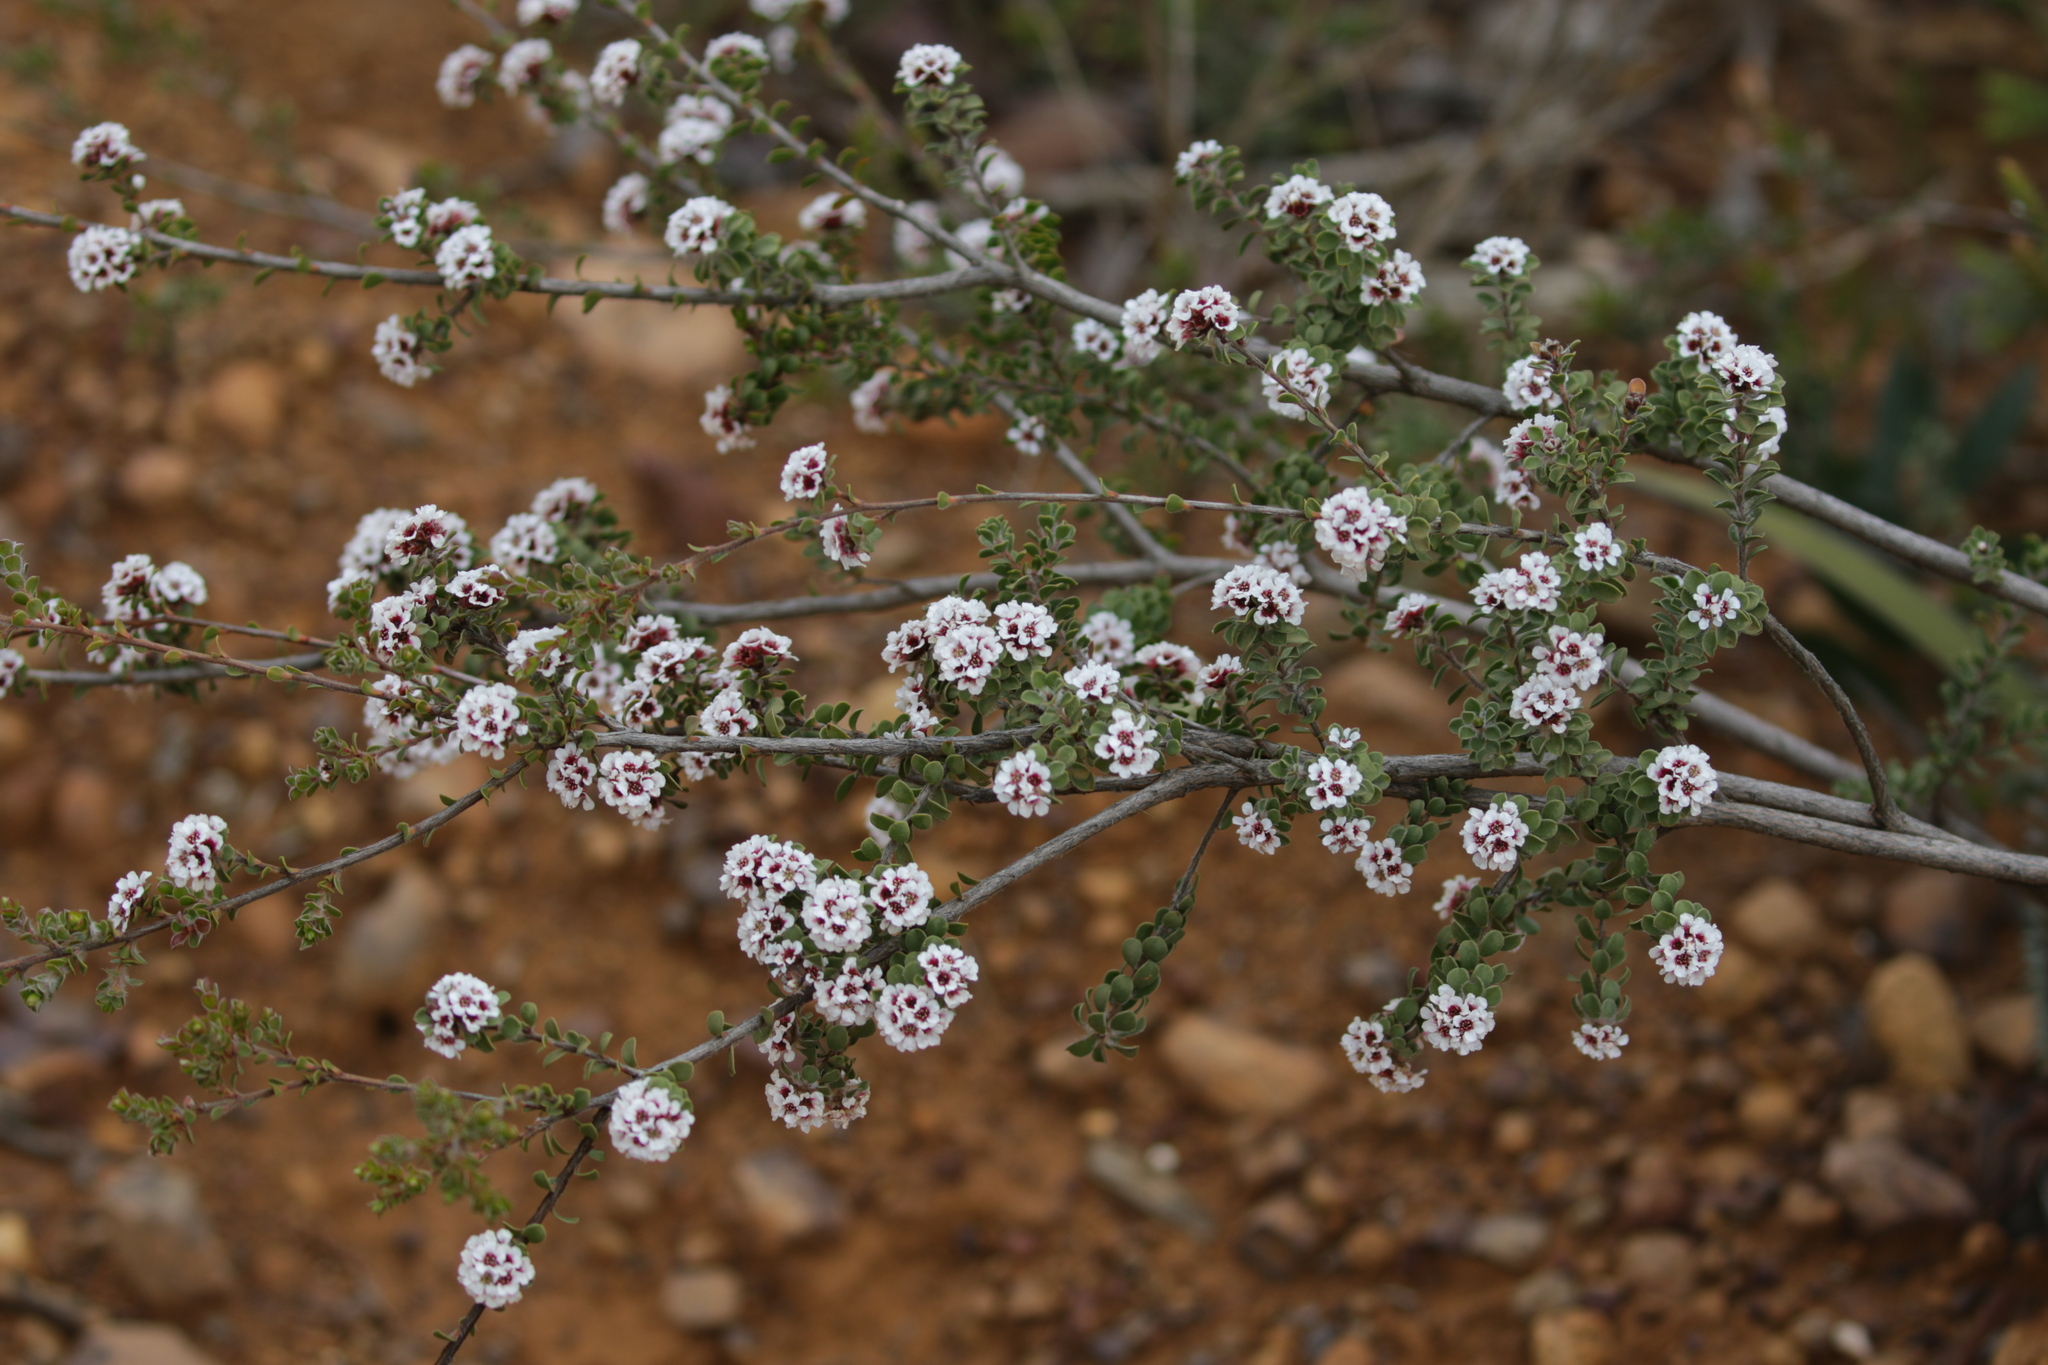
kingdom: Plantae
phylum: Tracheophyta
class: Magnoliopsida
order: Myrtales
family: Myrtaceae
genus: Taxandria
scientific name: Taxandria spathulata
